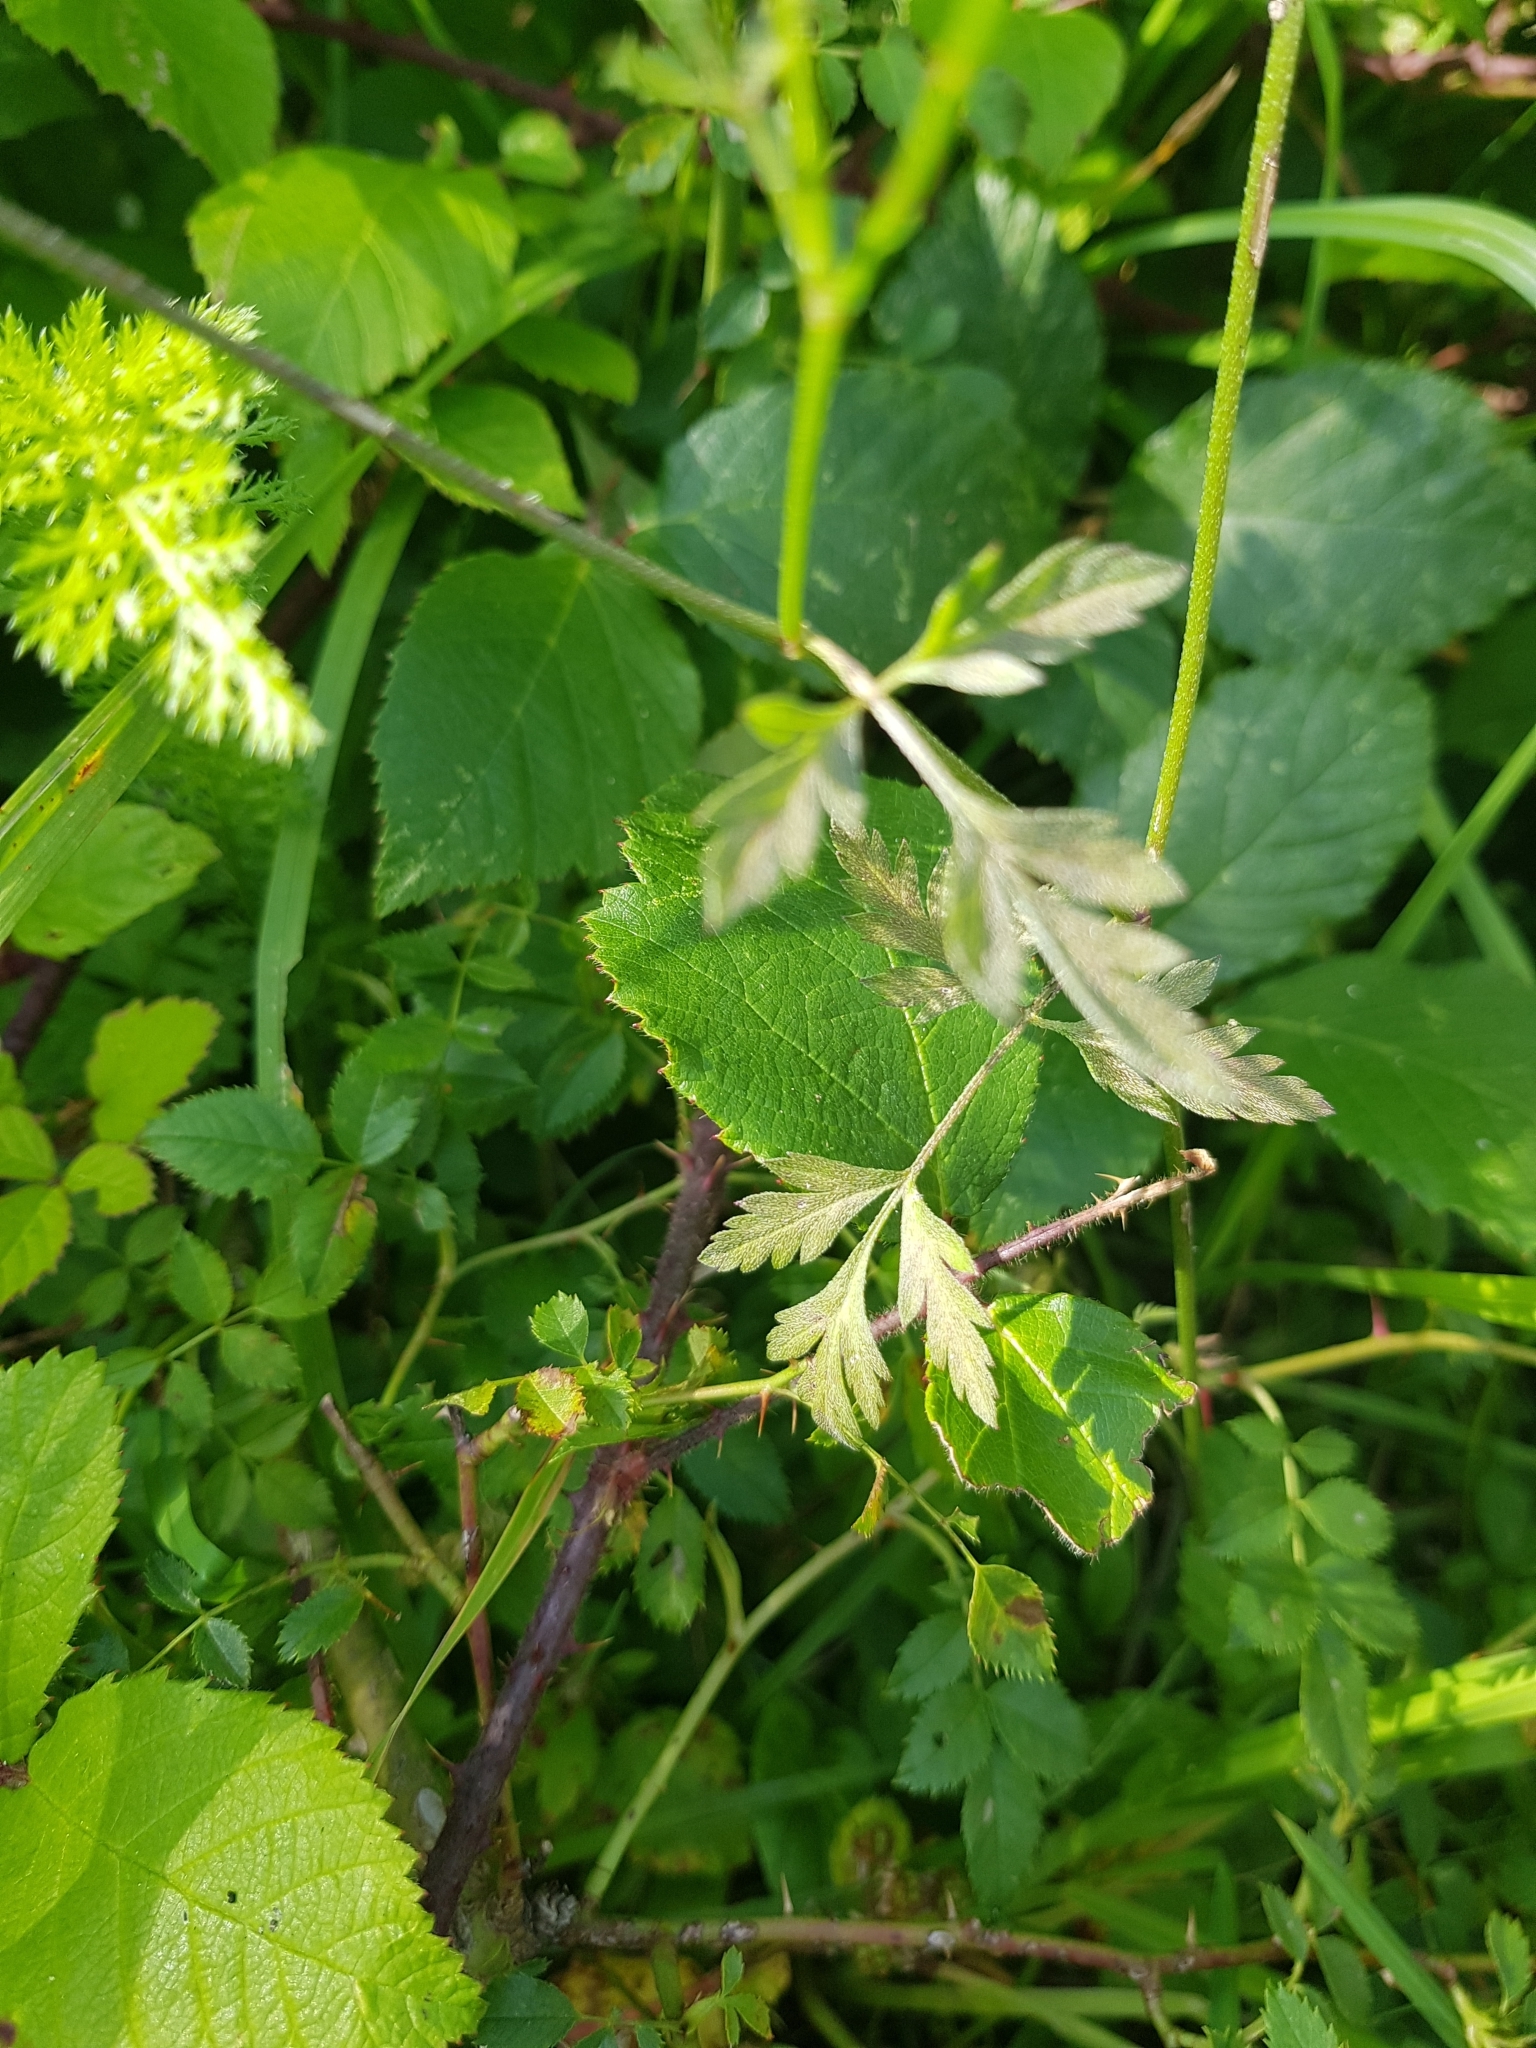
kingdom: Plantae
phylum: Tracheophyta
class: Magnoliopsida
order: Apiales
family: Apiaceae
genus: Torilis
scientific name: Torilis japonica
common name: Upright hedge-parsley
